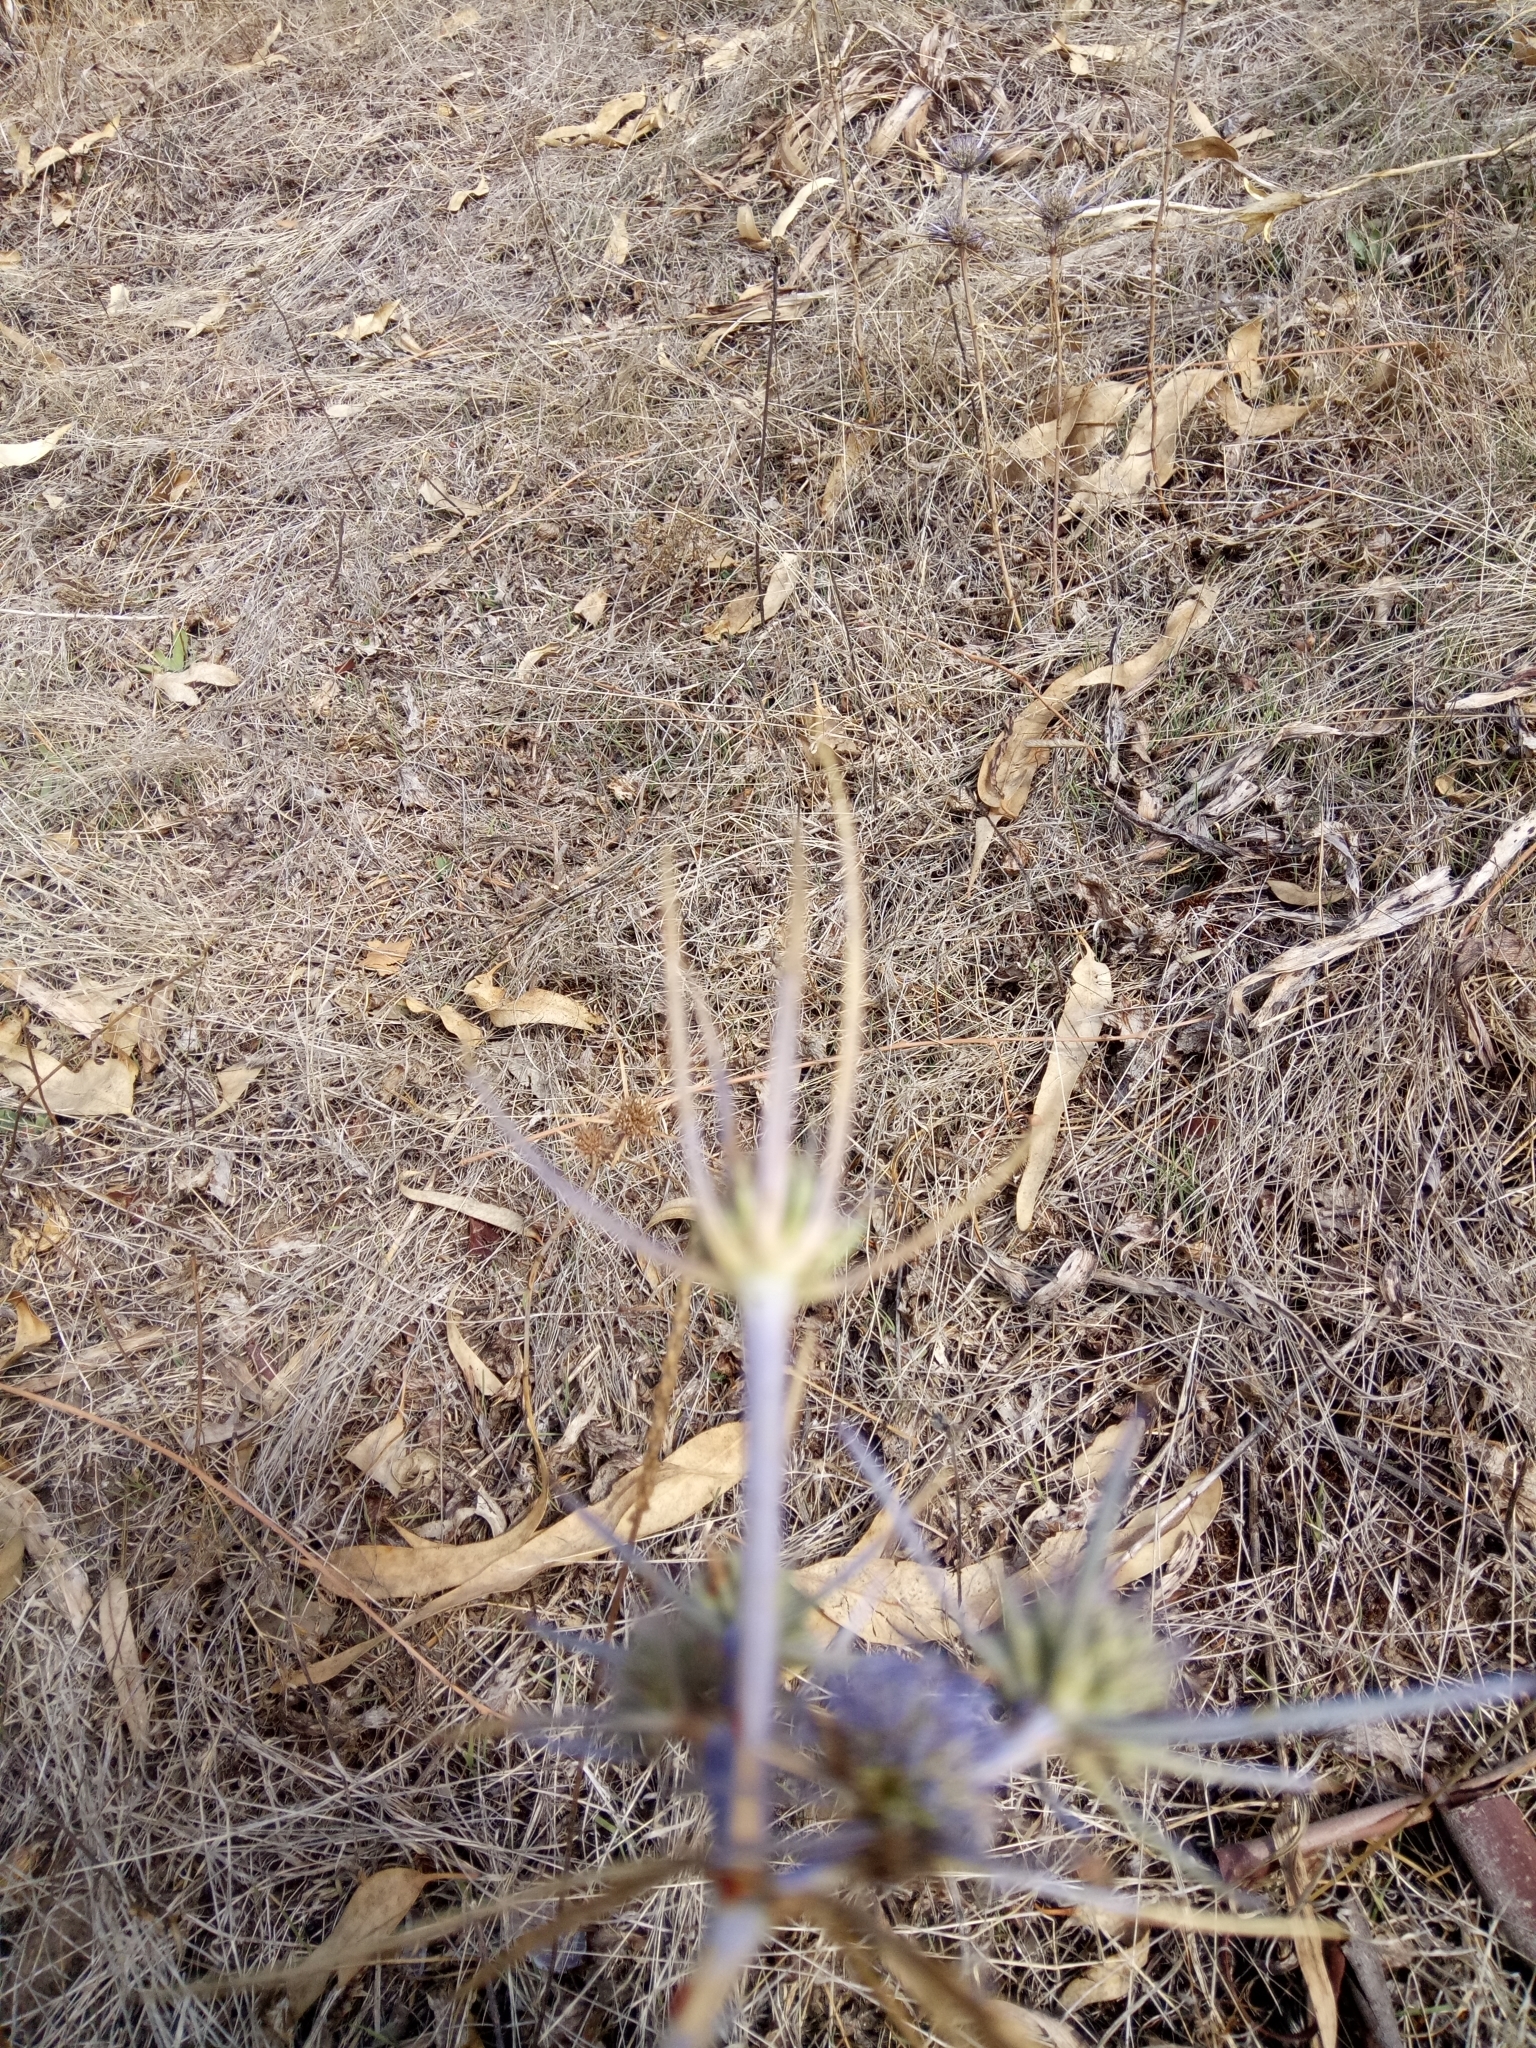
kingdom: Plantae
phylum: Tracheophyta
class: Magnoliopsida
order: Apiales
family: Apiaceae
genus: Eryngium
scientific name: Eryngium triquetrum
